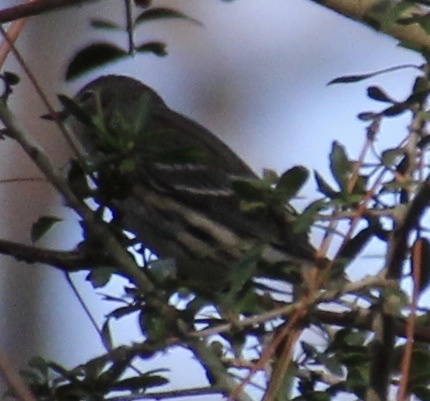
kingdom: Animalia
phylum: Chordata
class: Aves
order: Passeriformes
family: Parulidae
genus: Setophaga
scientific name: Setophaga coronata
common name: Myrtle warbler
